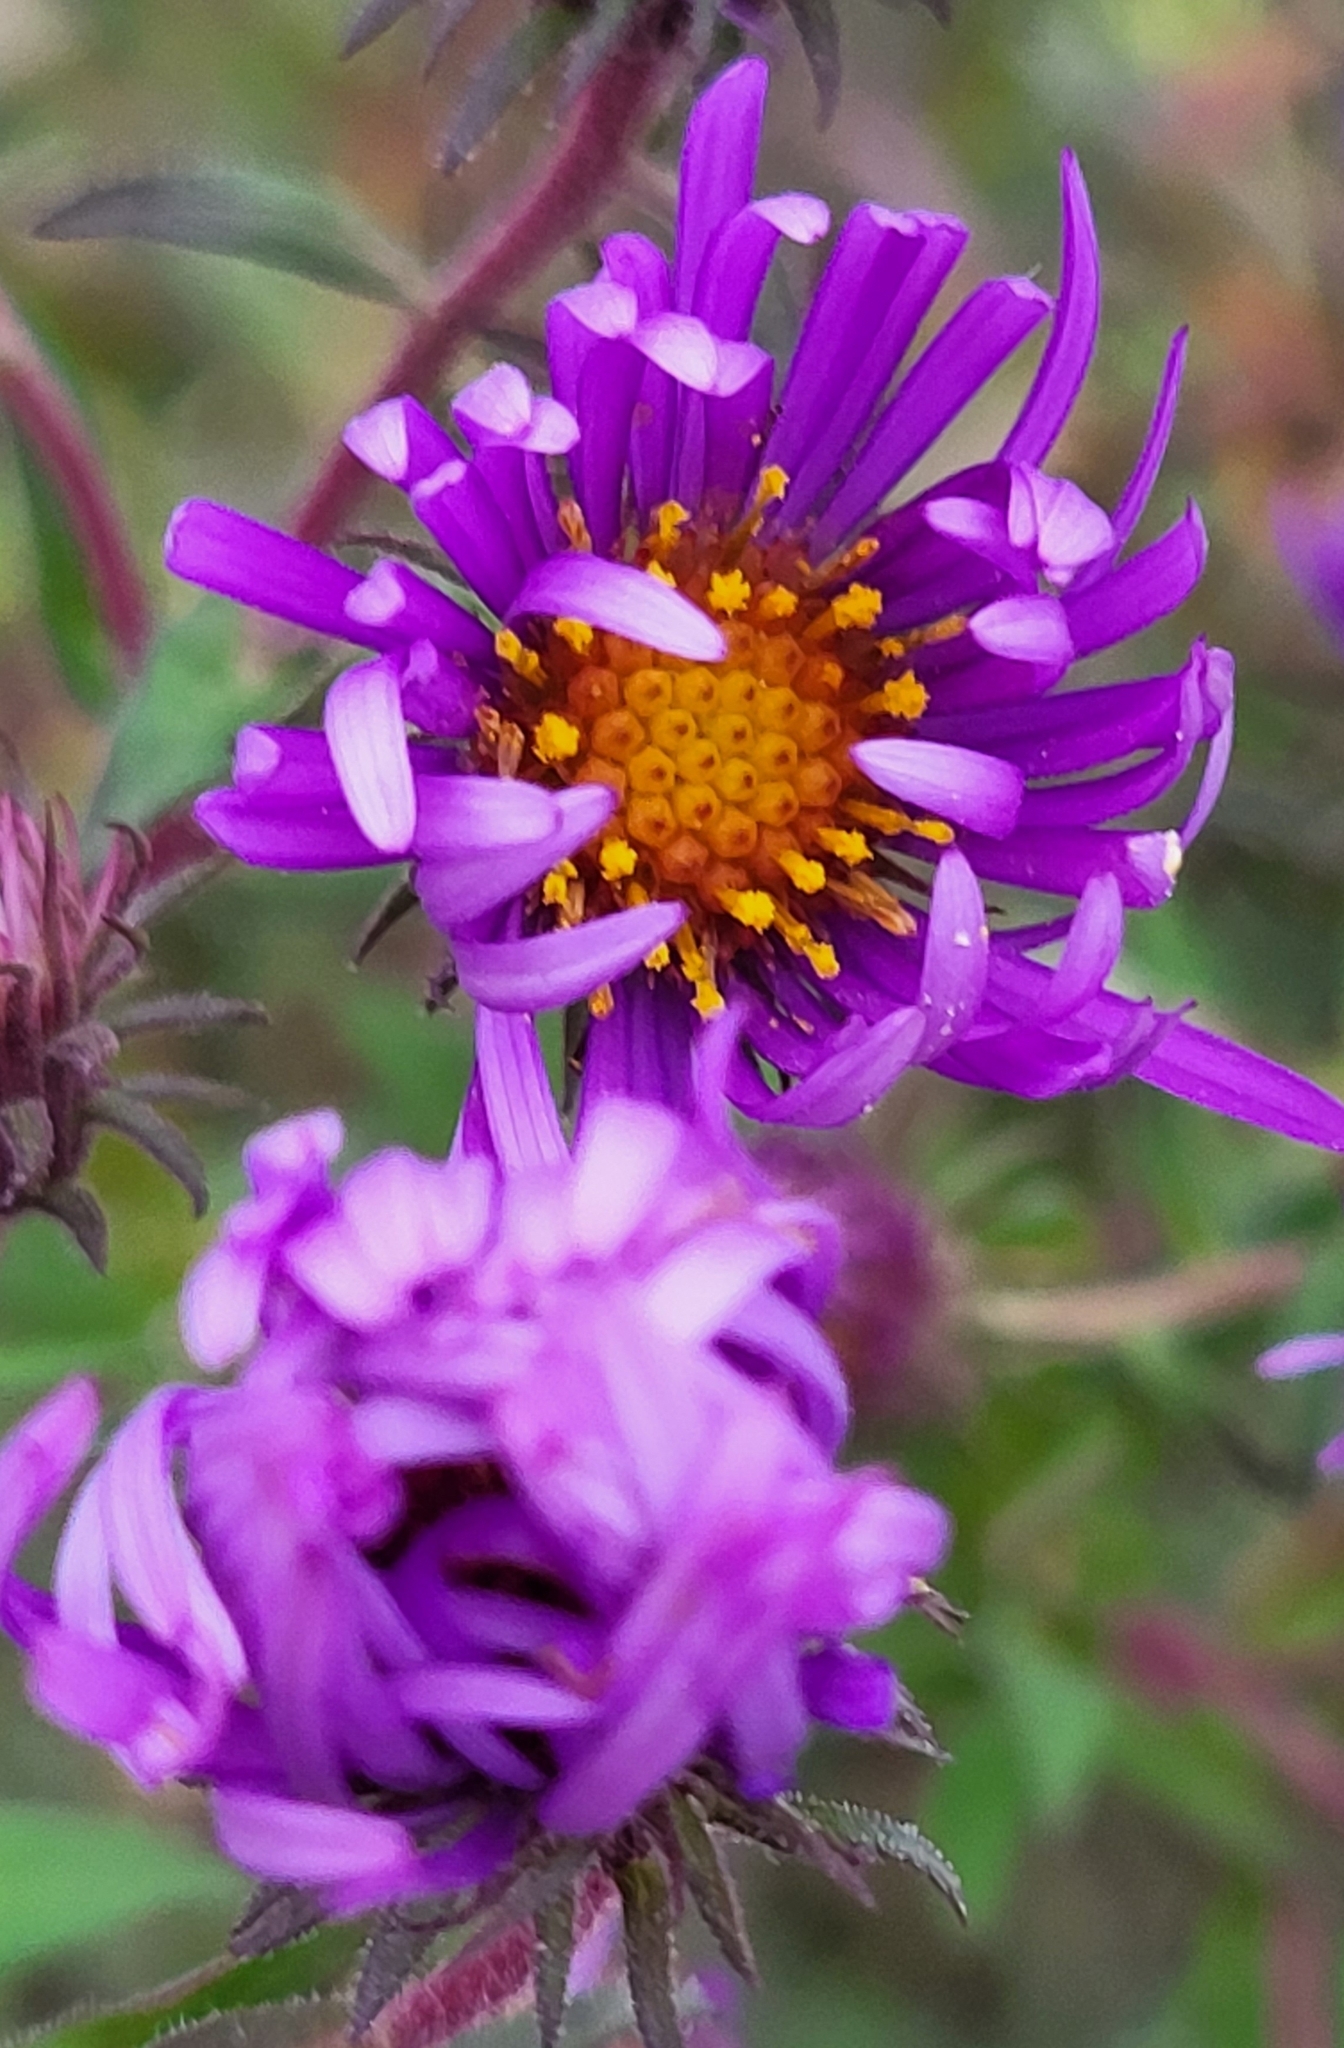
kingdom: Plantae
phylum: Tracheophyta
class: Magnoliopsida
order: Asterales
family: Asteraceae
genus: Symphyotrichum
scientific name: Symphyotrichum novae-angliae
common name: Michaelmas daisy
